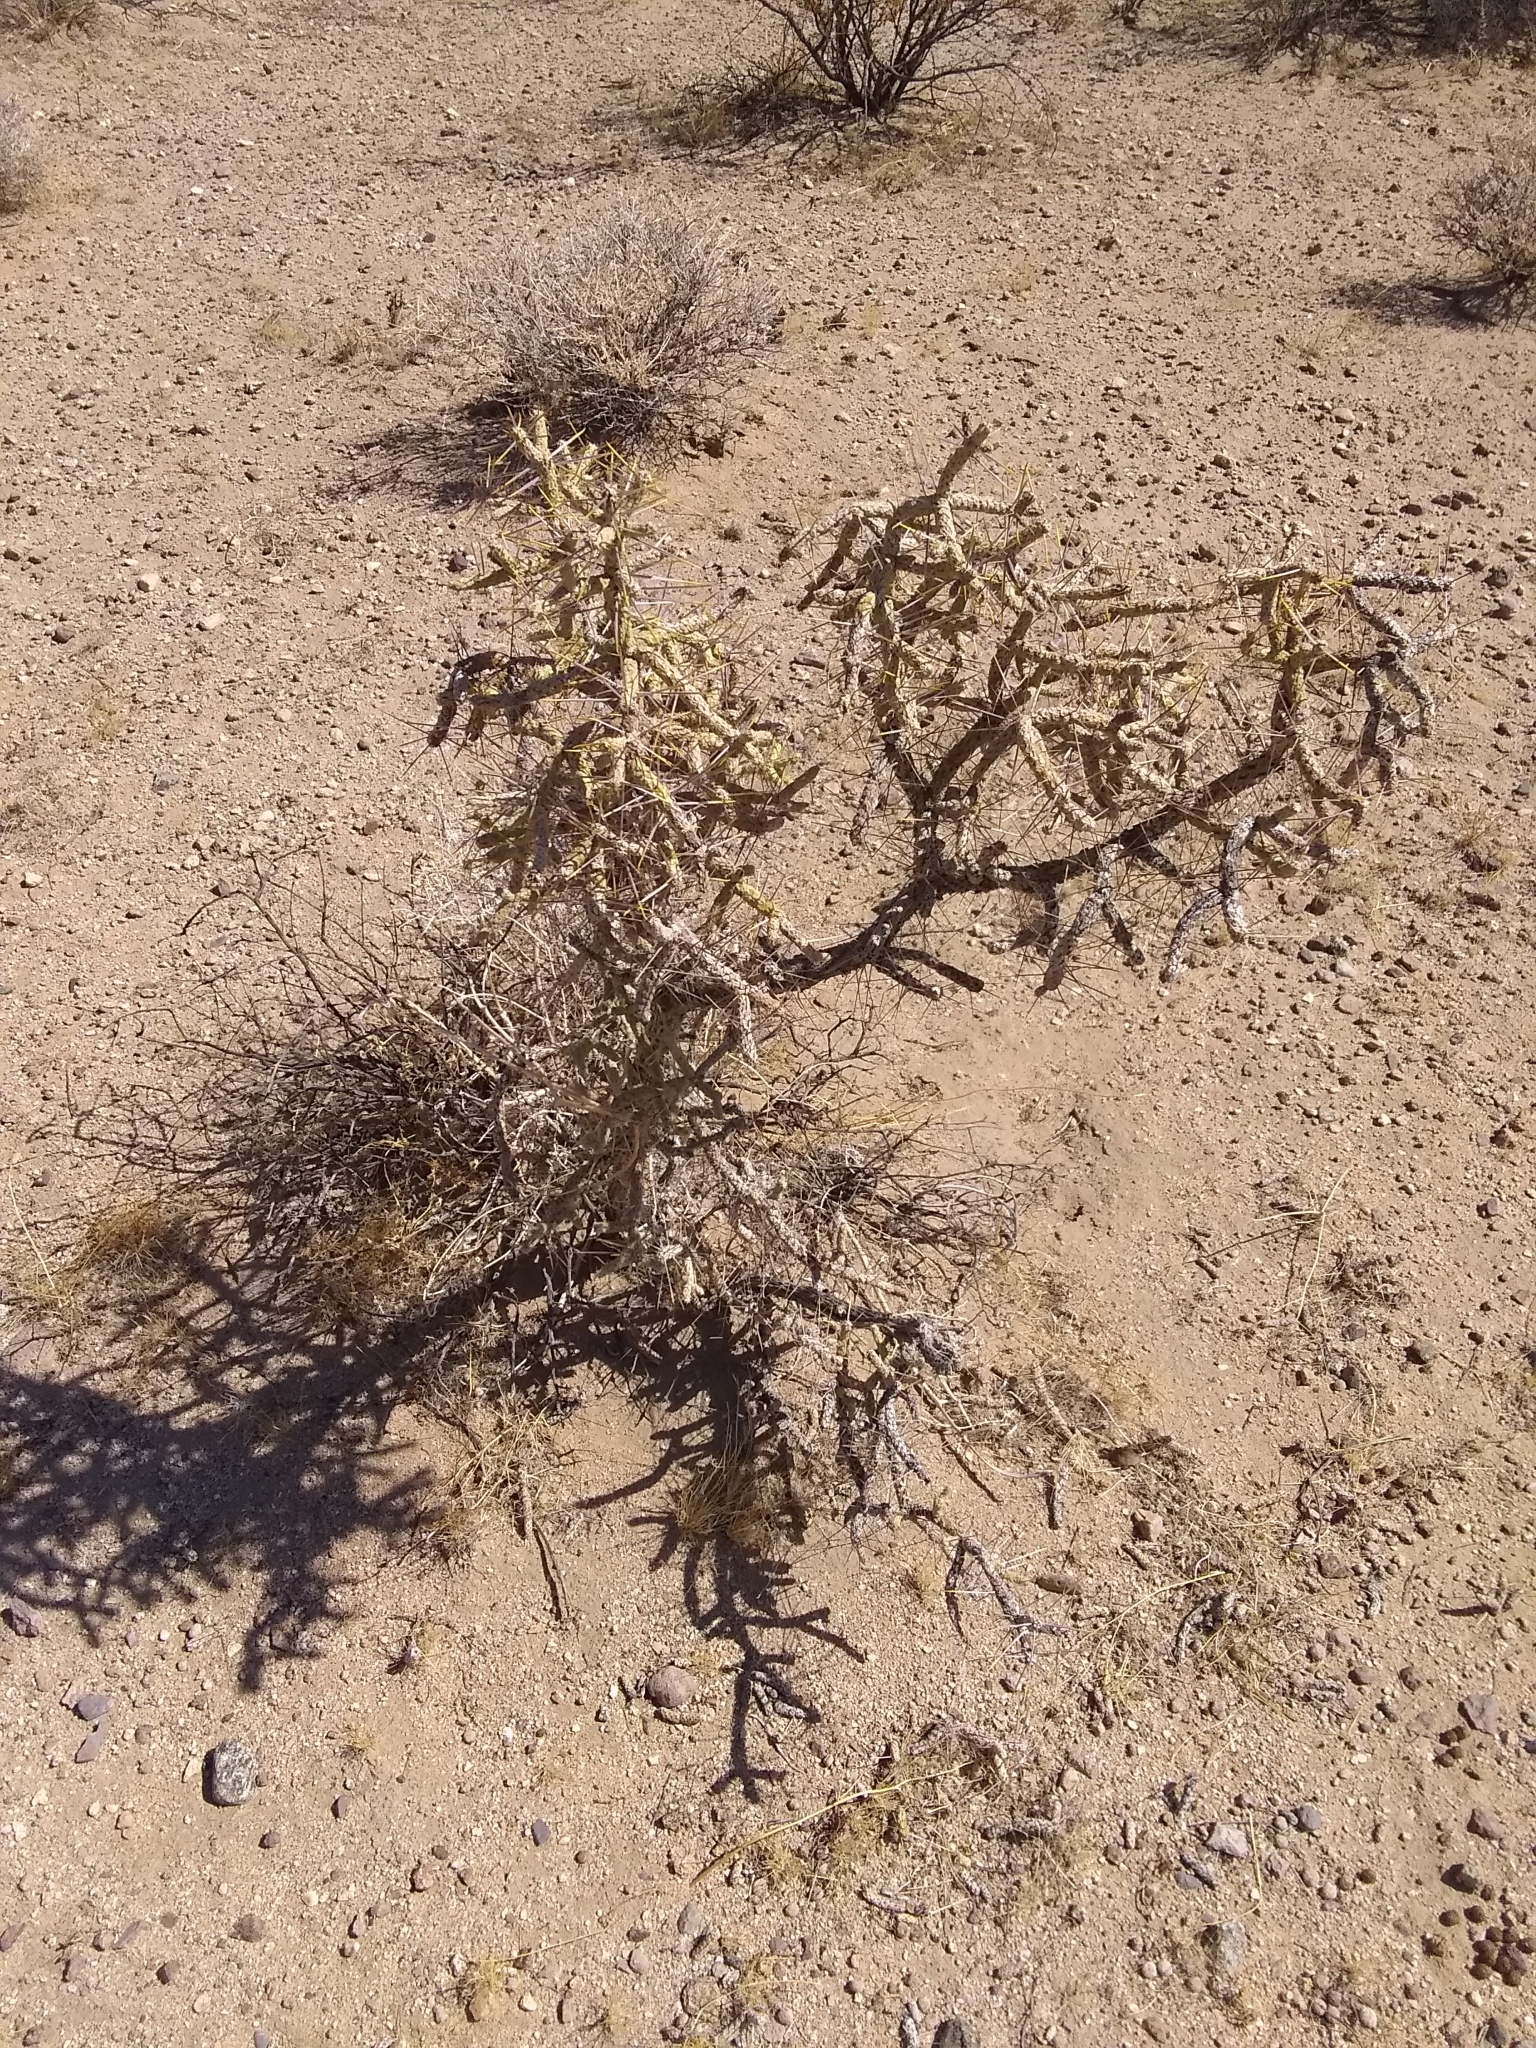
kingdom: Plantae
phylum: Tracheophyta
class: Magnoliopsida
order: Caryophyllales
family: Cactaceae
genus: Cylindropuntia
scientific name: Cylindropuntia ramosissima
